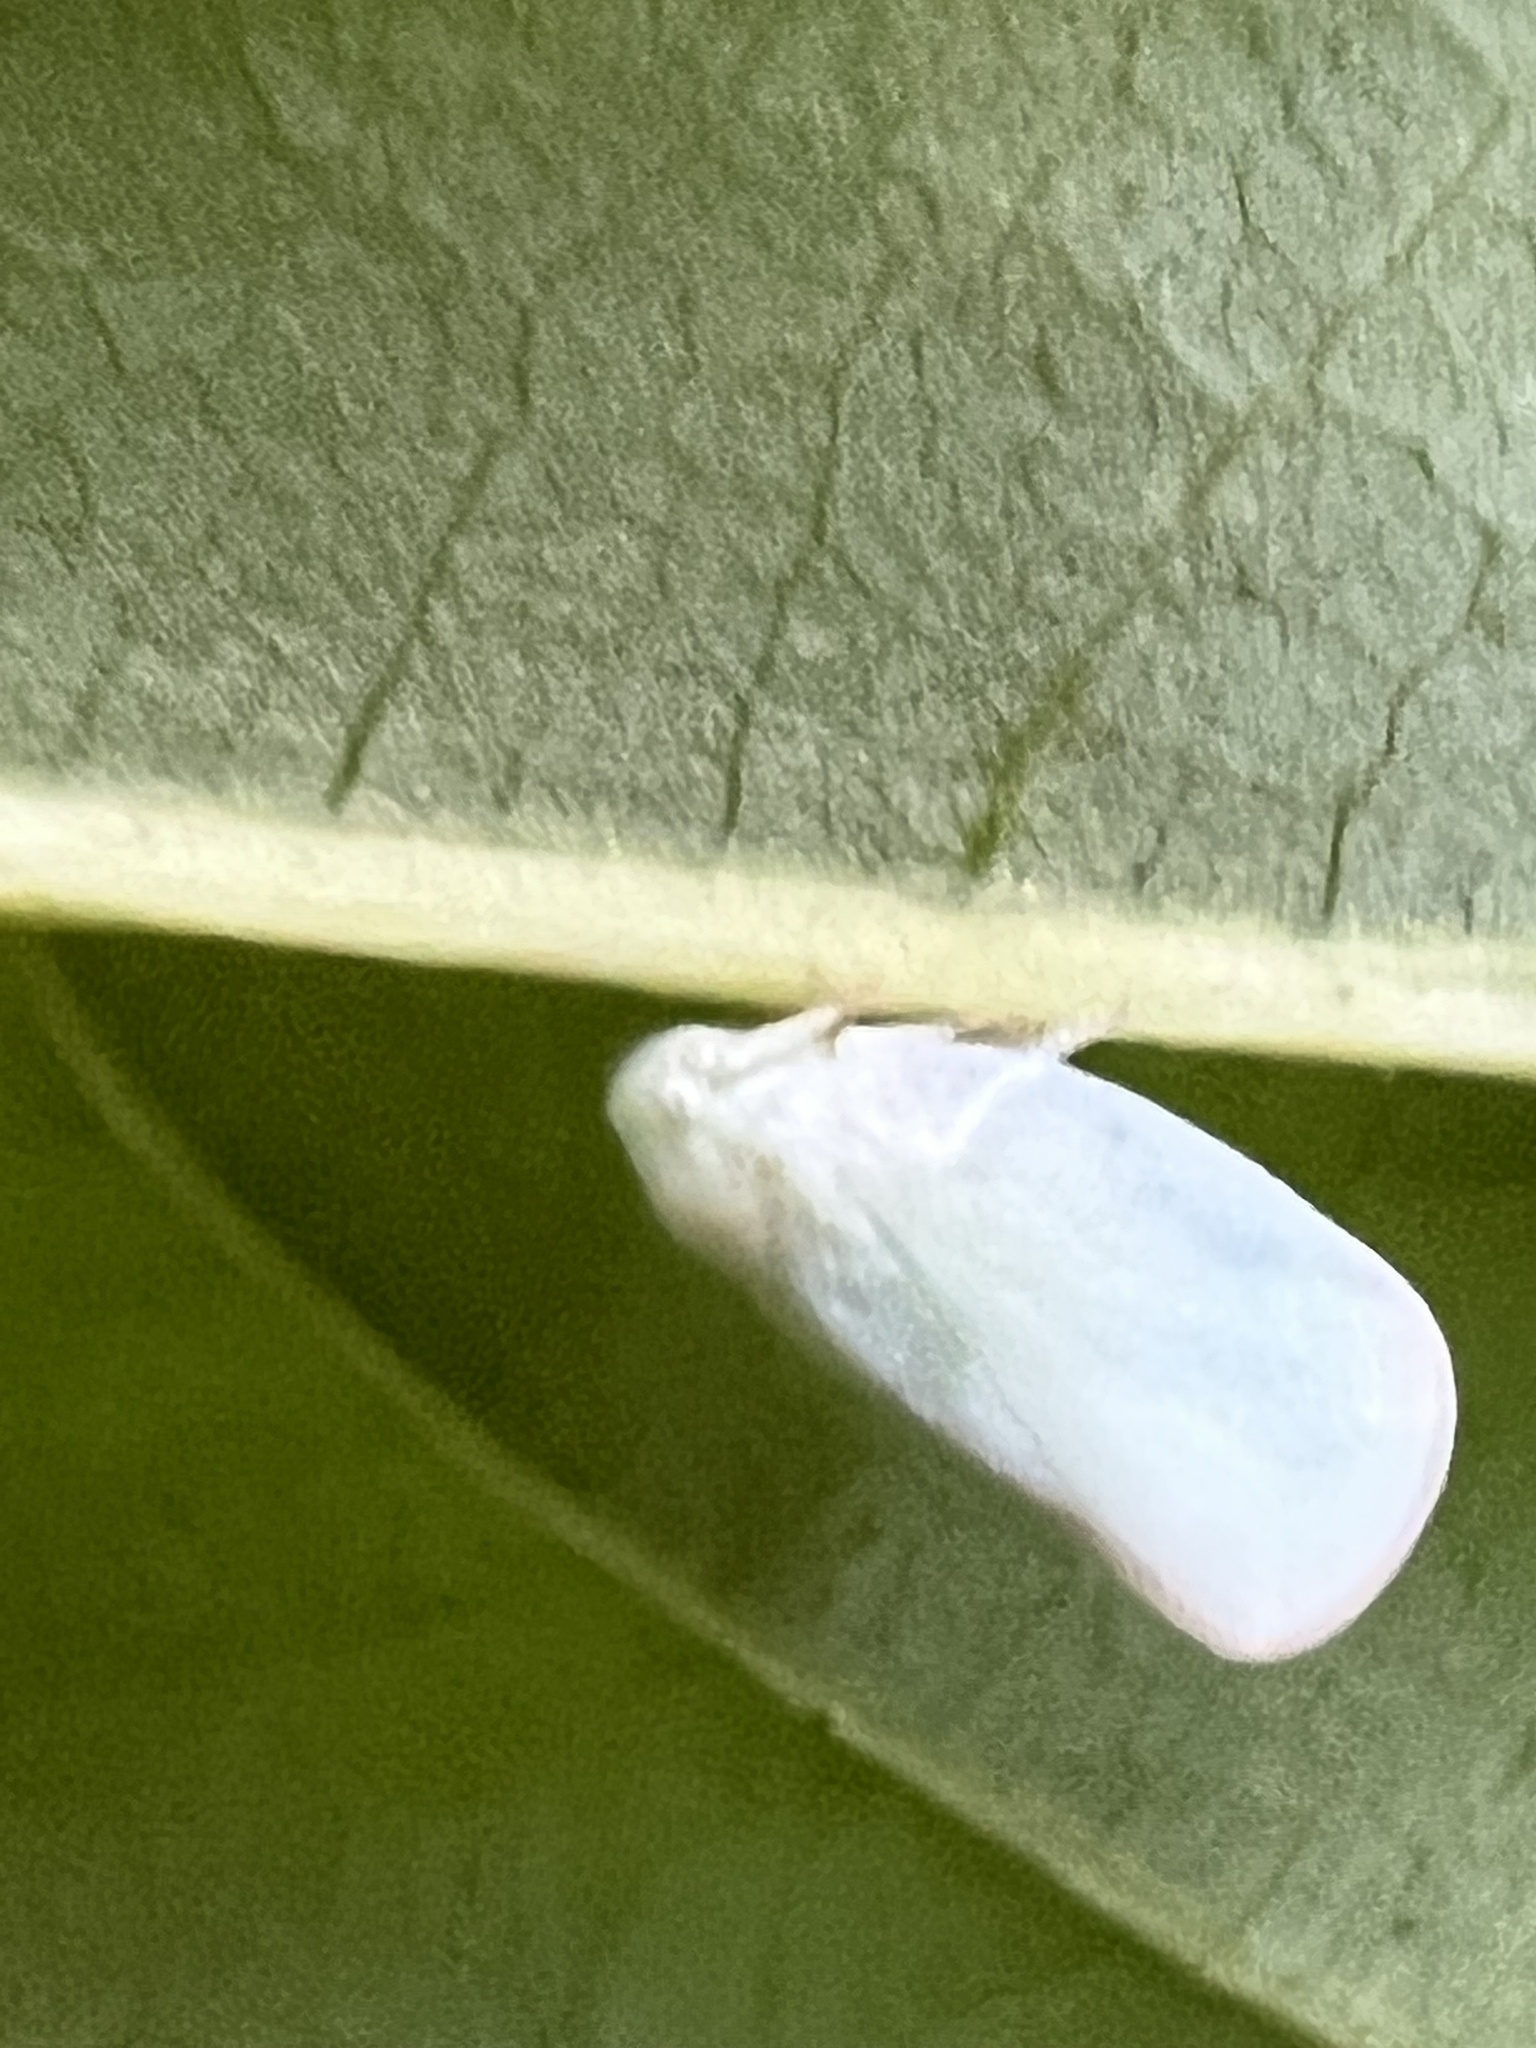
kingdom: Animalia
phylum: Arthropoda
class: Insecta
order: Hemiptera
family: Flatidae
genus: Ormenoides
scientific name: Ormenoides venusta
